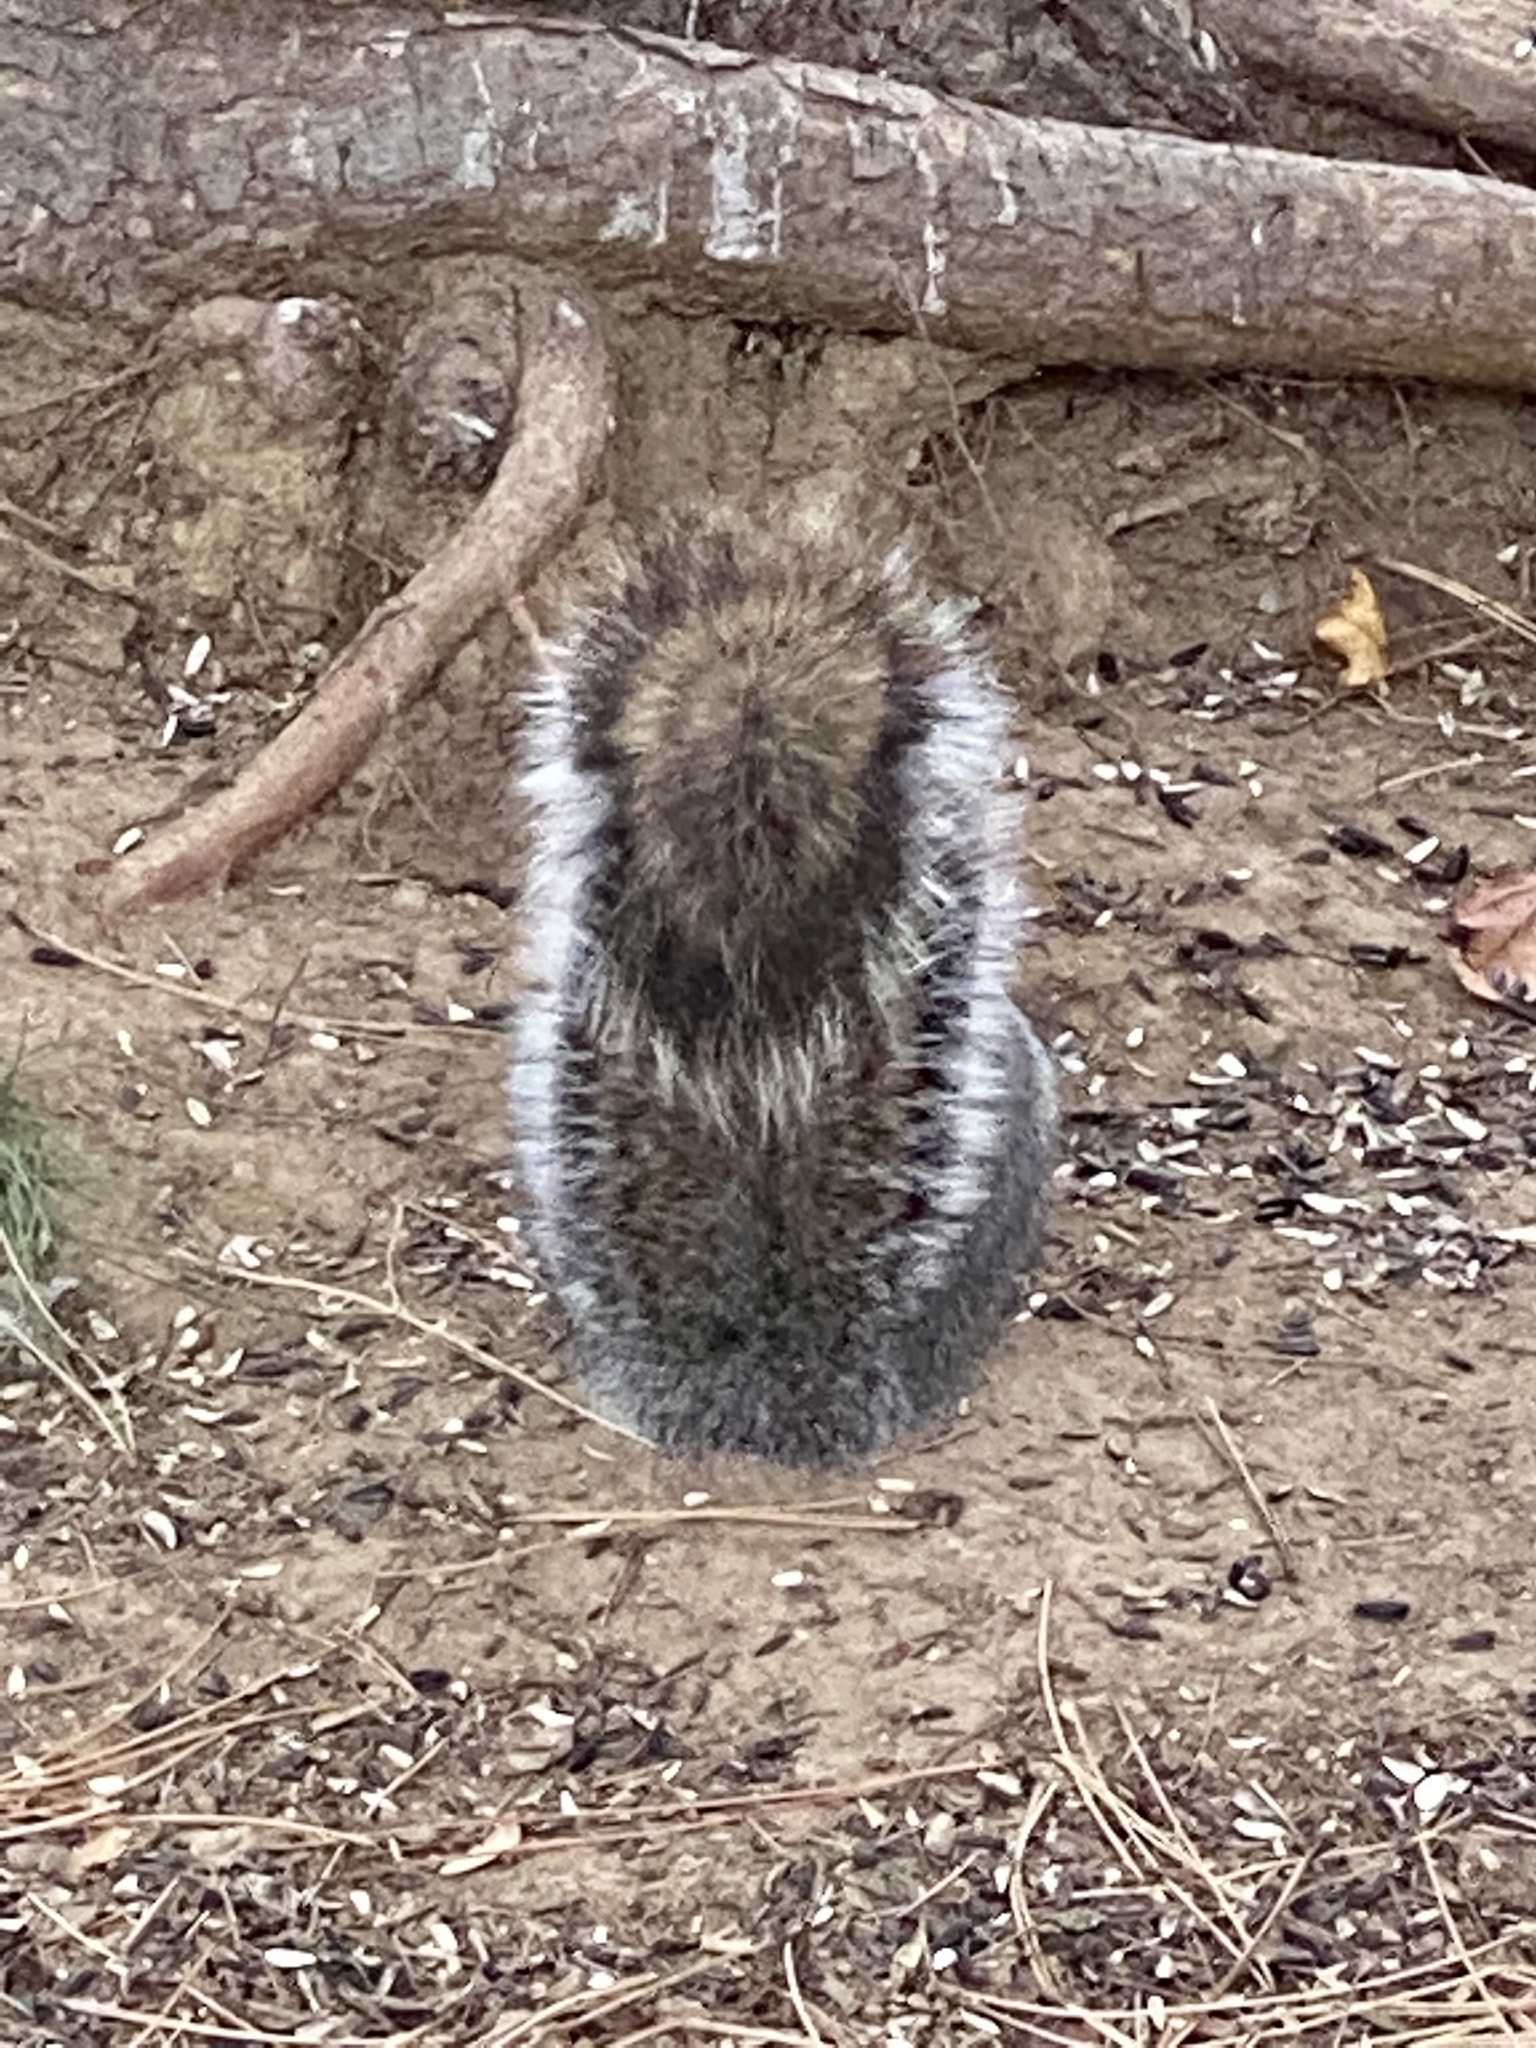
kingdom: Animalia
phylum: Chordata
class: Mammalia
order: Rodentia
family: Sciuridae
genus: Sciurus
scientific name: Sciurus carolinensis
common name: Eastern gray squirrel
